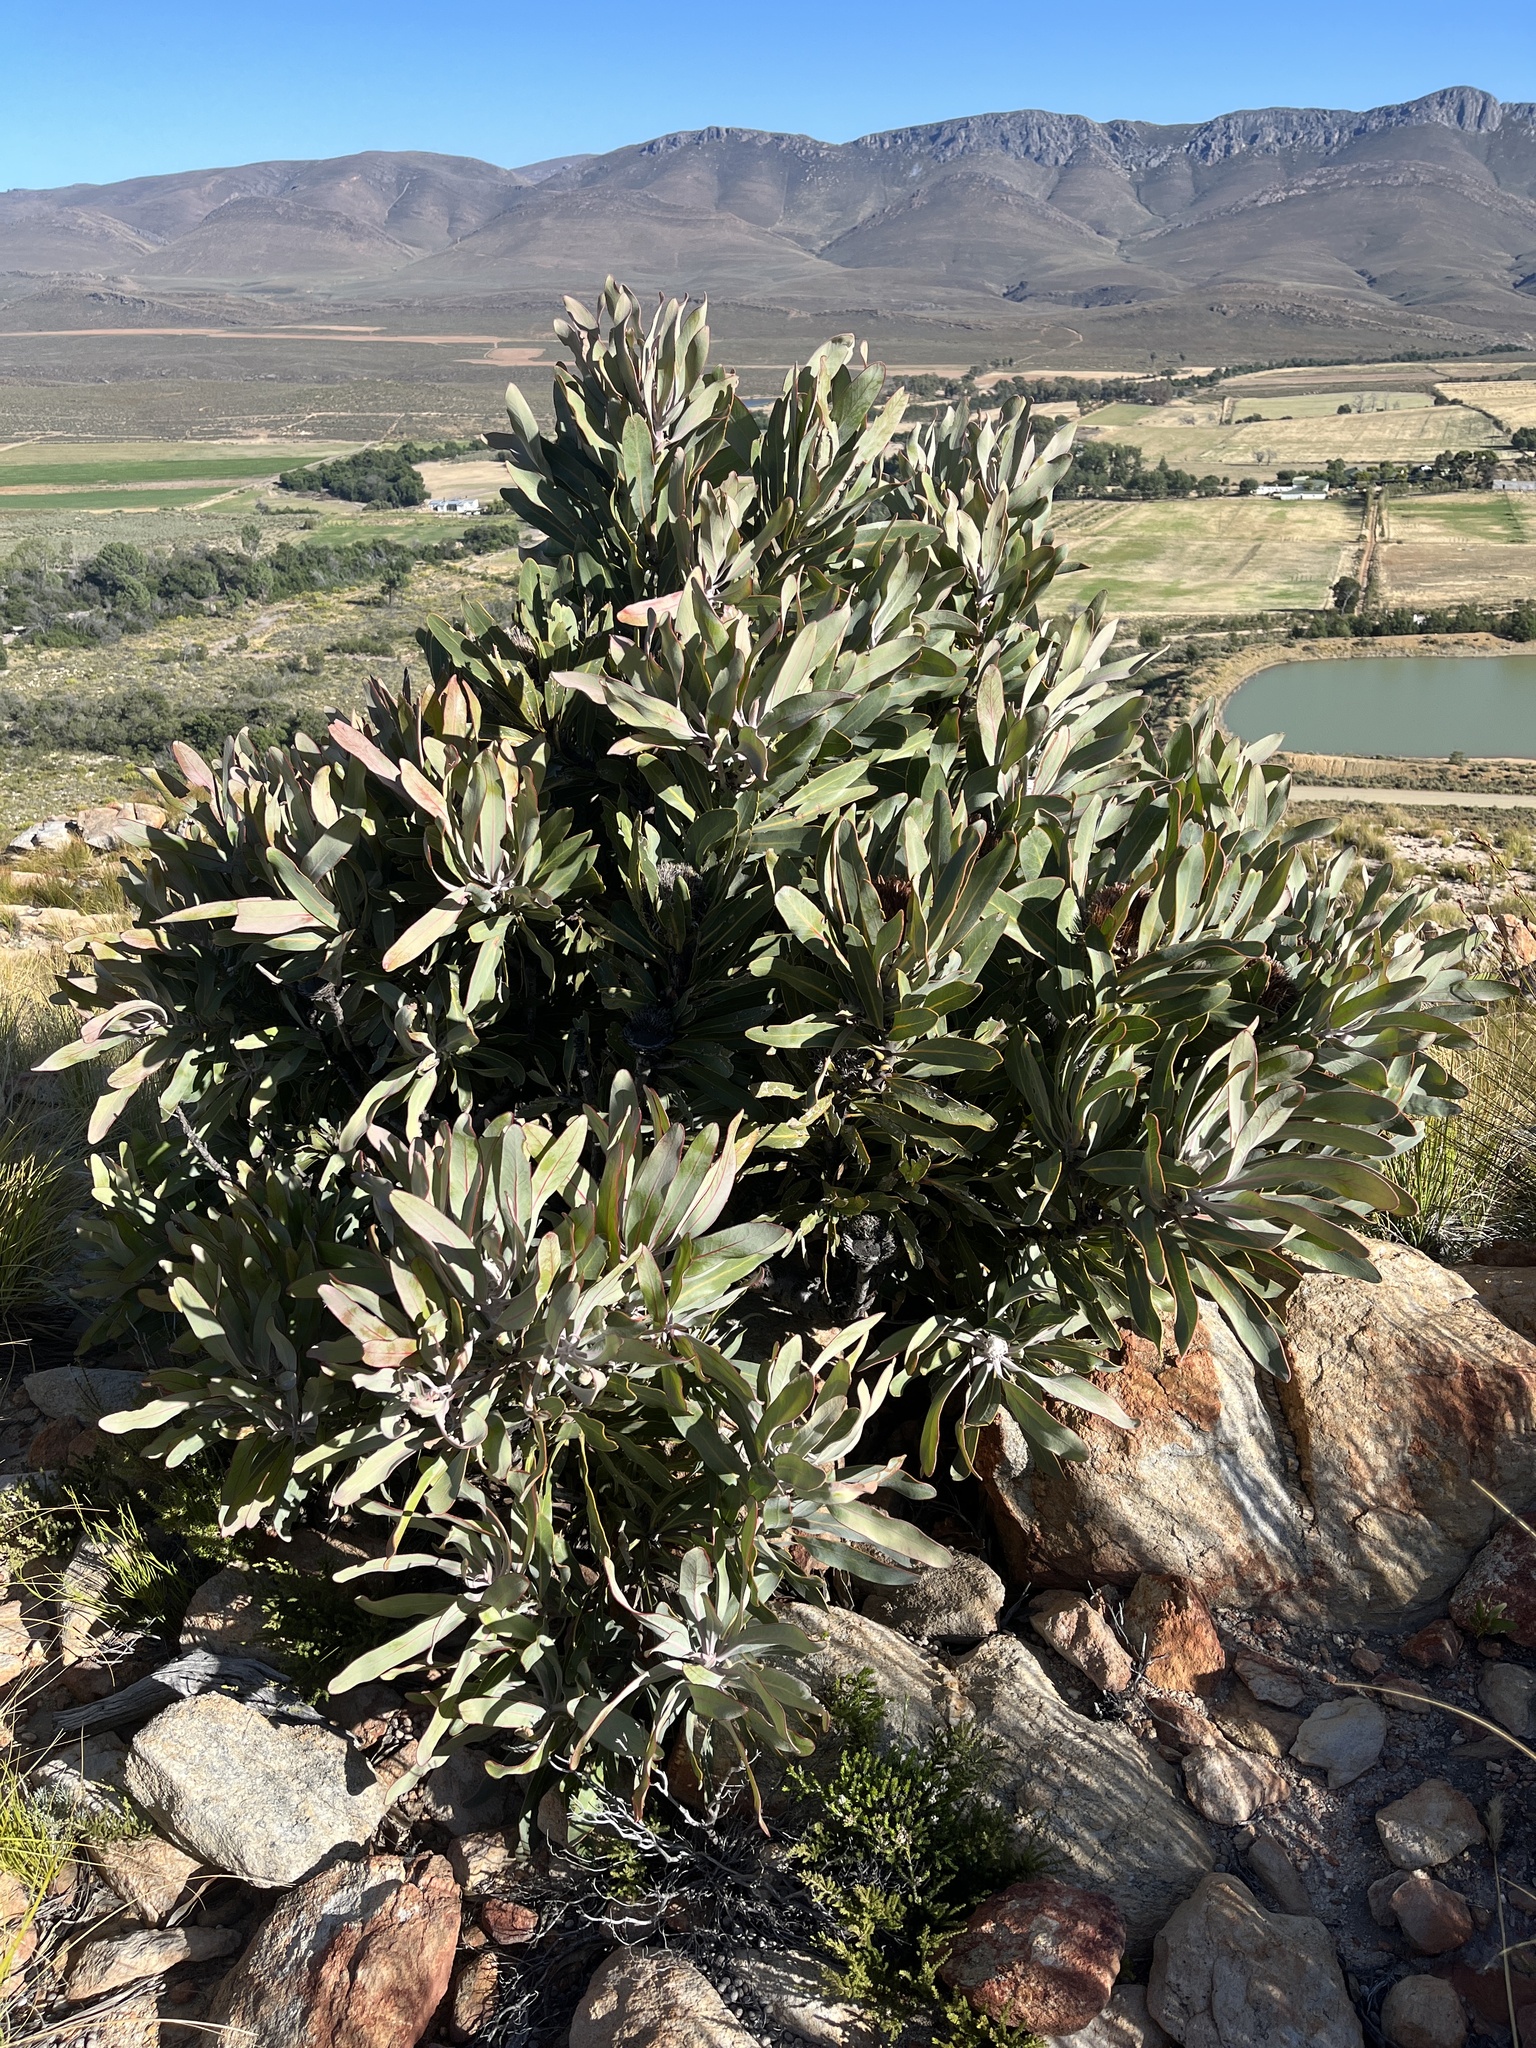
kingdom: Plantae
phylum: Tracheophyta
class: Magnoliopsida
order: Proteales
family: Proteaceae
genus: Protea
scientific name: Protea lorifolia
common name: Strap-leaved protea
